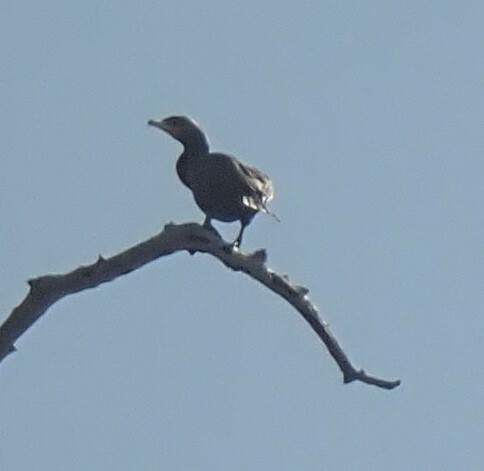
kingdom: Animalia
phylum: Chordata
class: Aves
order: Suliformes
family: Phalacrocoracidae
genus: Phalacrocorax
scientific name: Phalacrocorax auritus
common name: Double-crested cormorant
